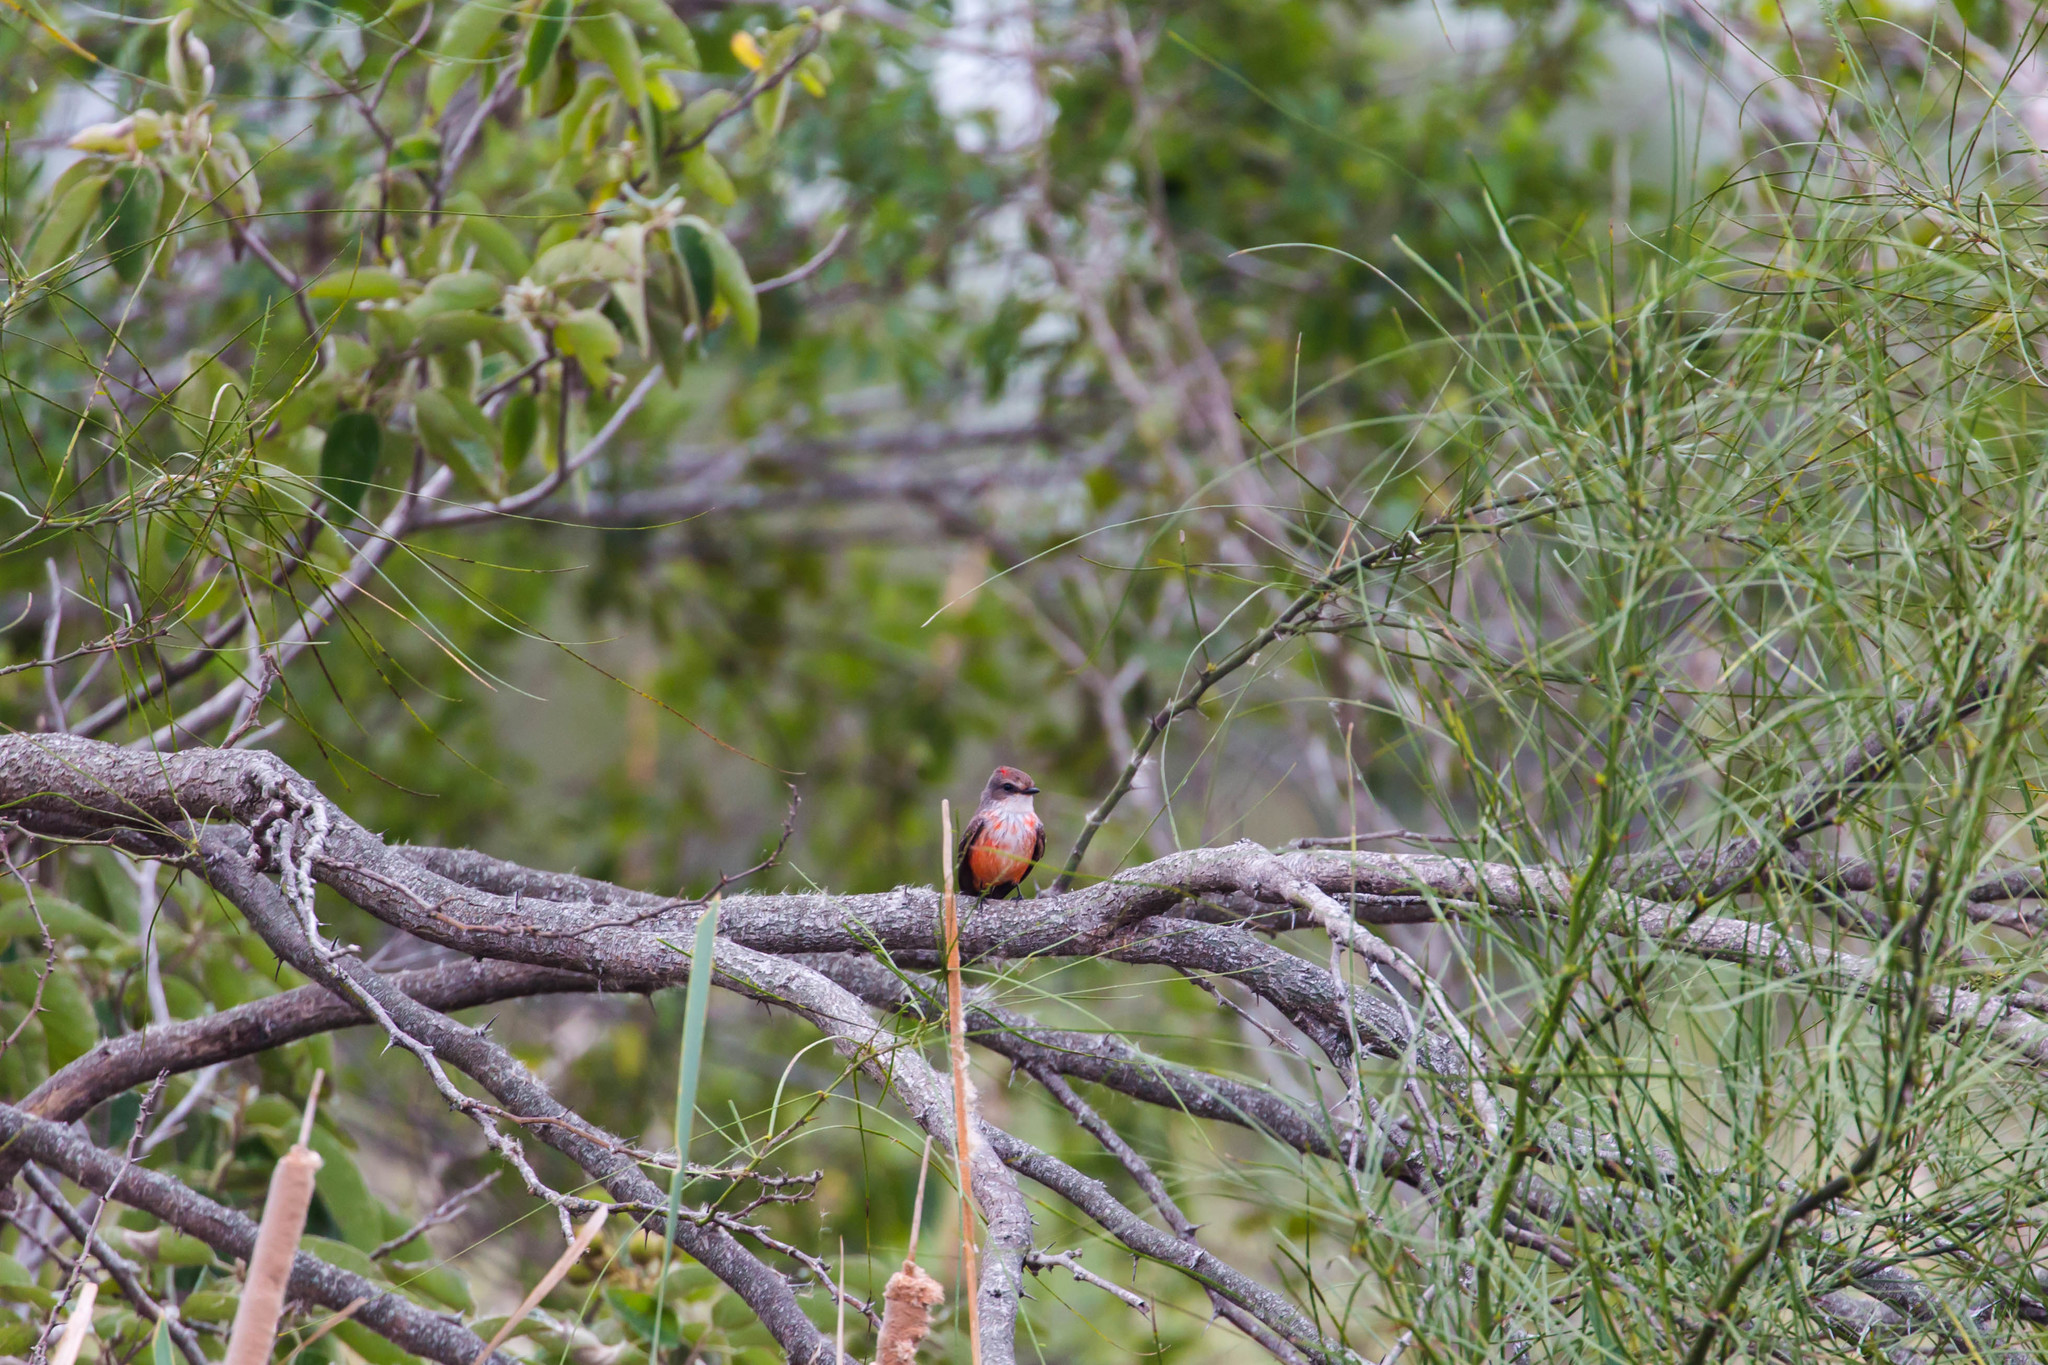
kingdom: Animalia
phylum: Chordata
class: Aves
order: Passeriformes
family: Tyrannidae
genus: Pyrocephalus
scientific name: Pyrocephalus rubinus
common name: Vermilion flycatcher
